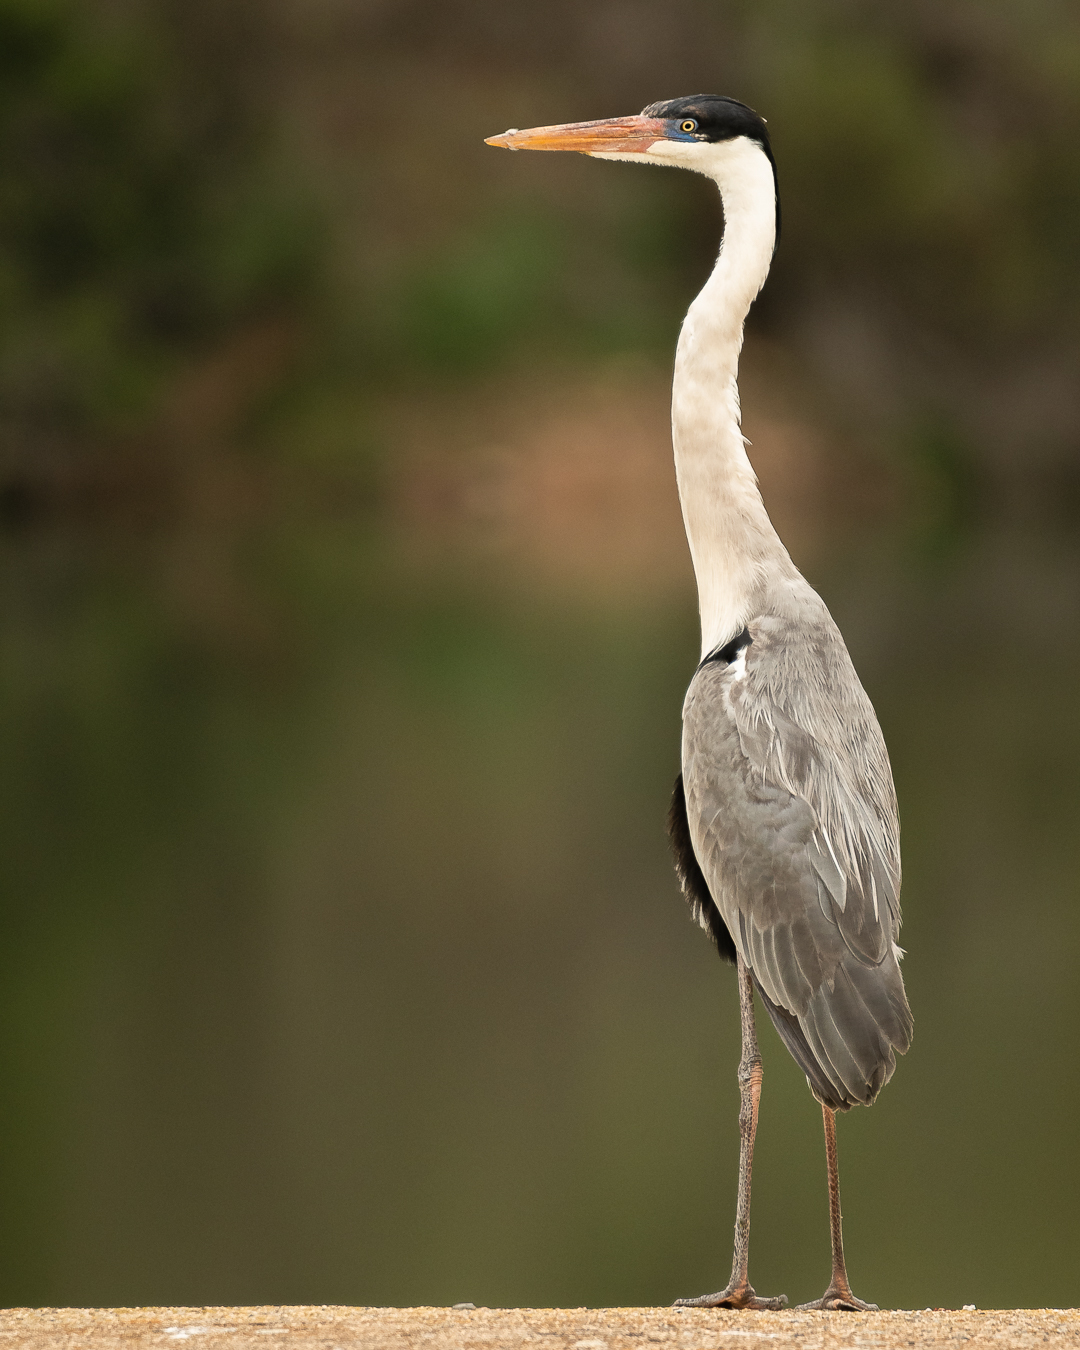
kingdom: Animalia
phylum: Chordata
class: Aves
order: Pelecaniformes
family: Ardeidae
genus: Ardea
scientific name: Ardea cocoi
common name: Cocoi heron
